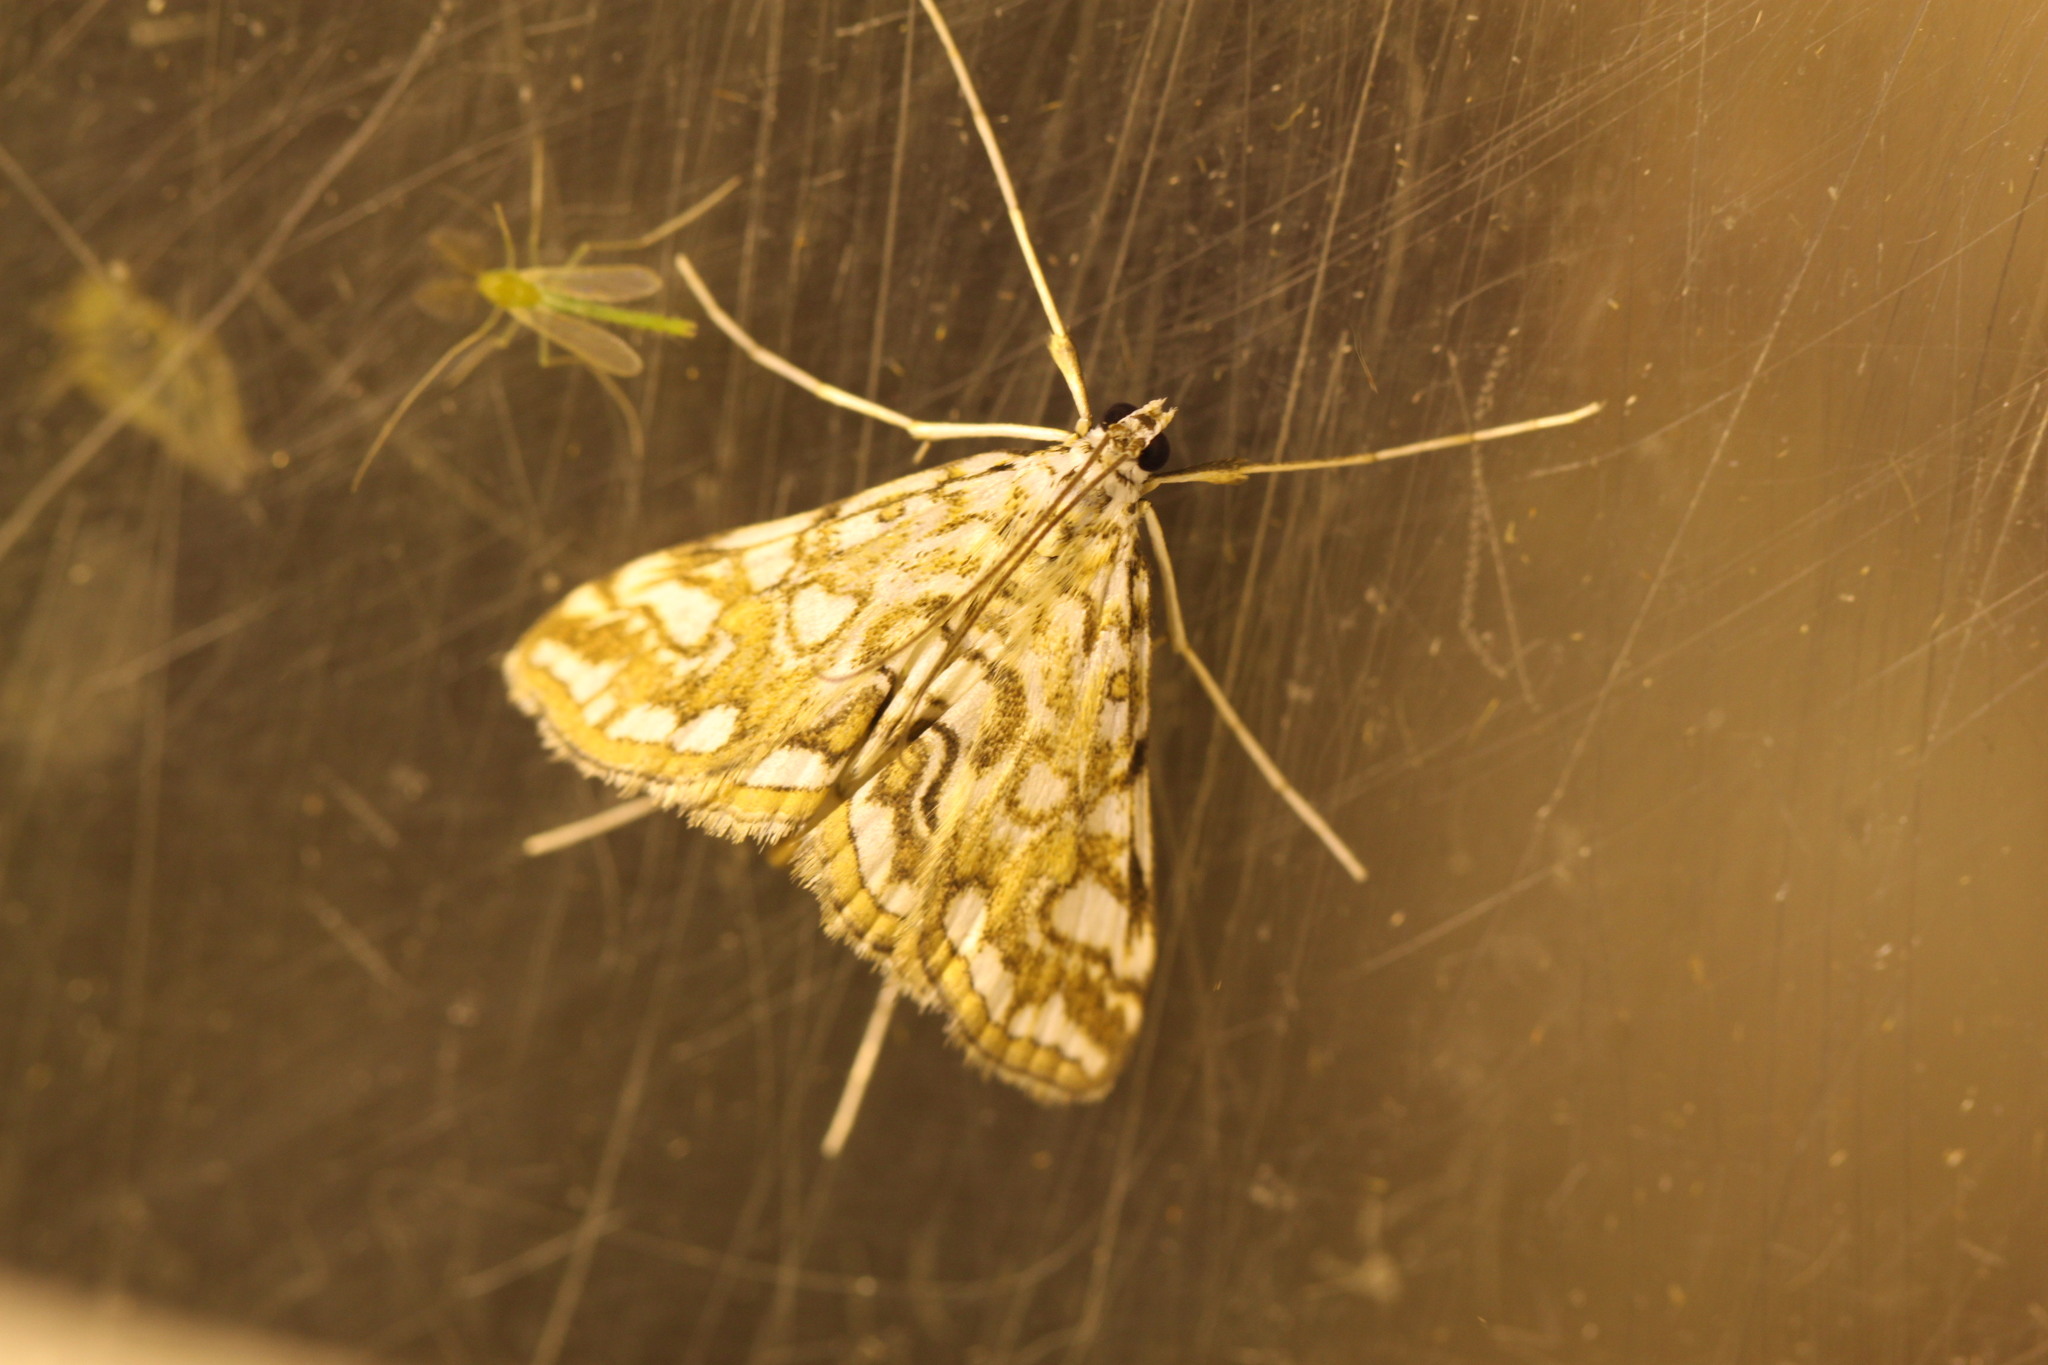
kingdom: Animalia
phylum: Arthropoda
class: Insecta
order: Lepidoptera
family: Crambidae
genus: Elophila
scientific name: Elophila nymphaeata
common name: Brown china-mark
